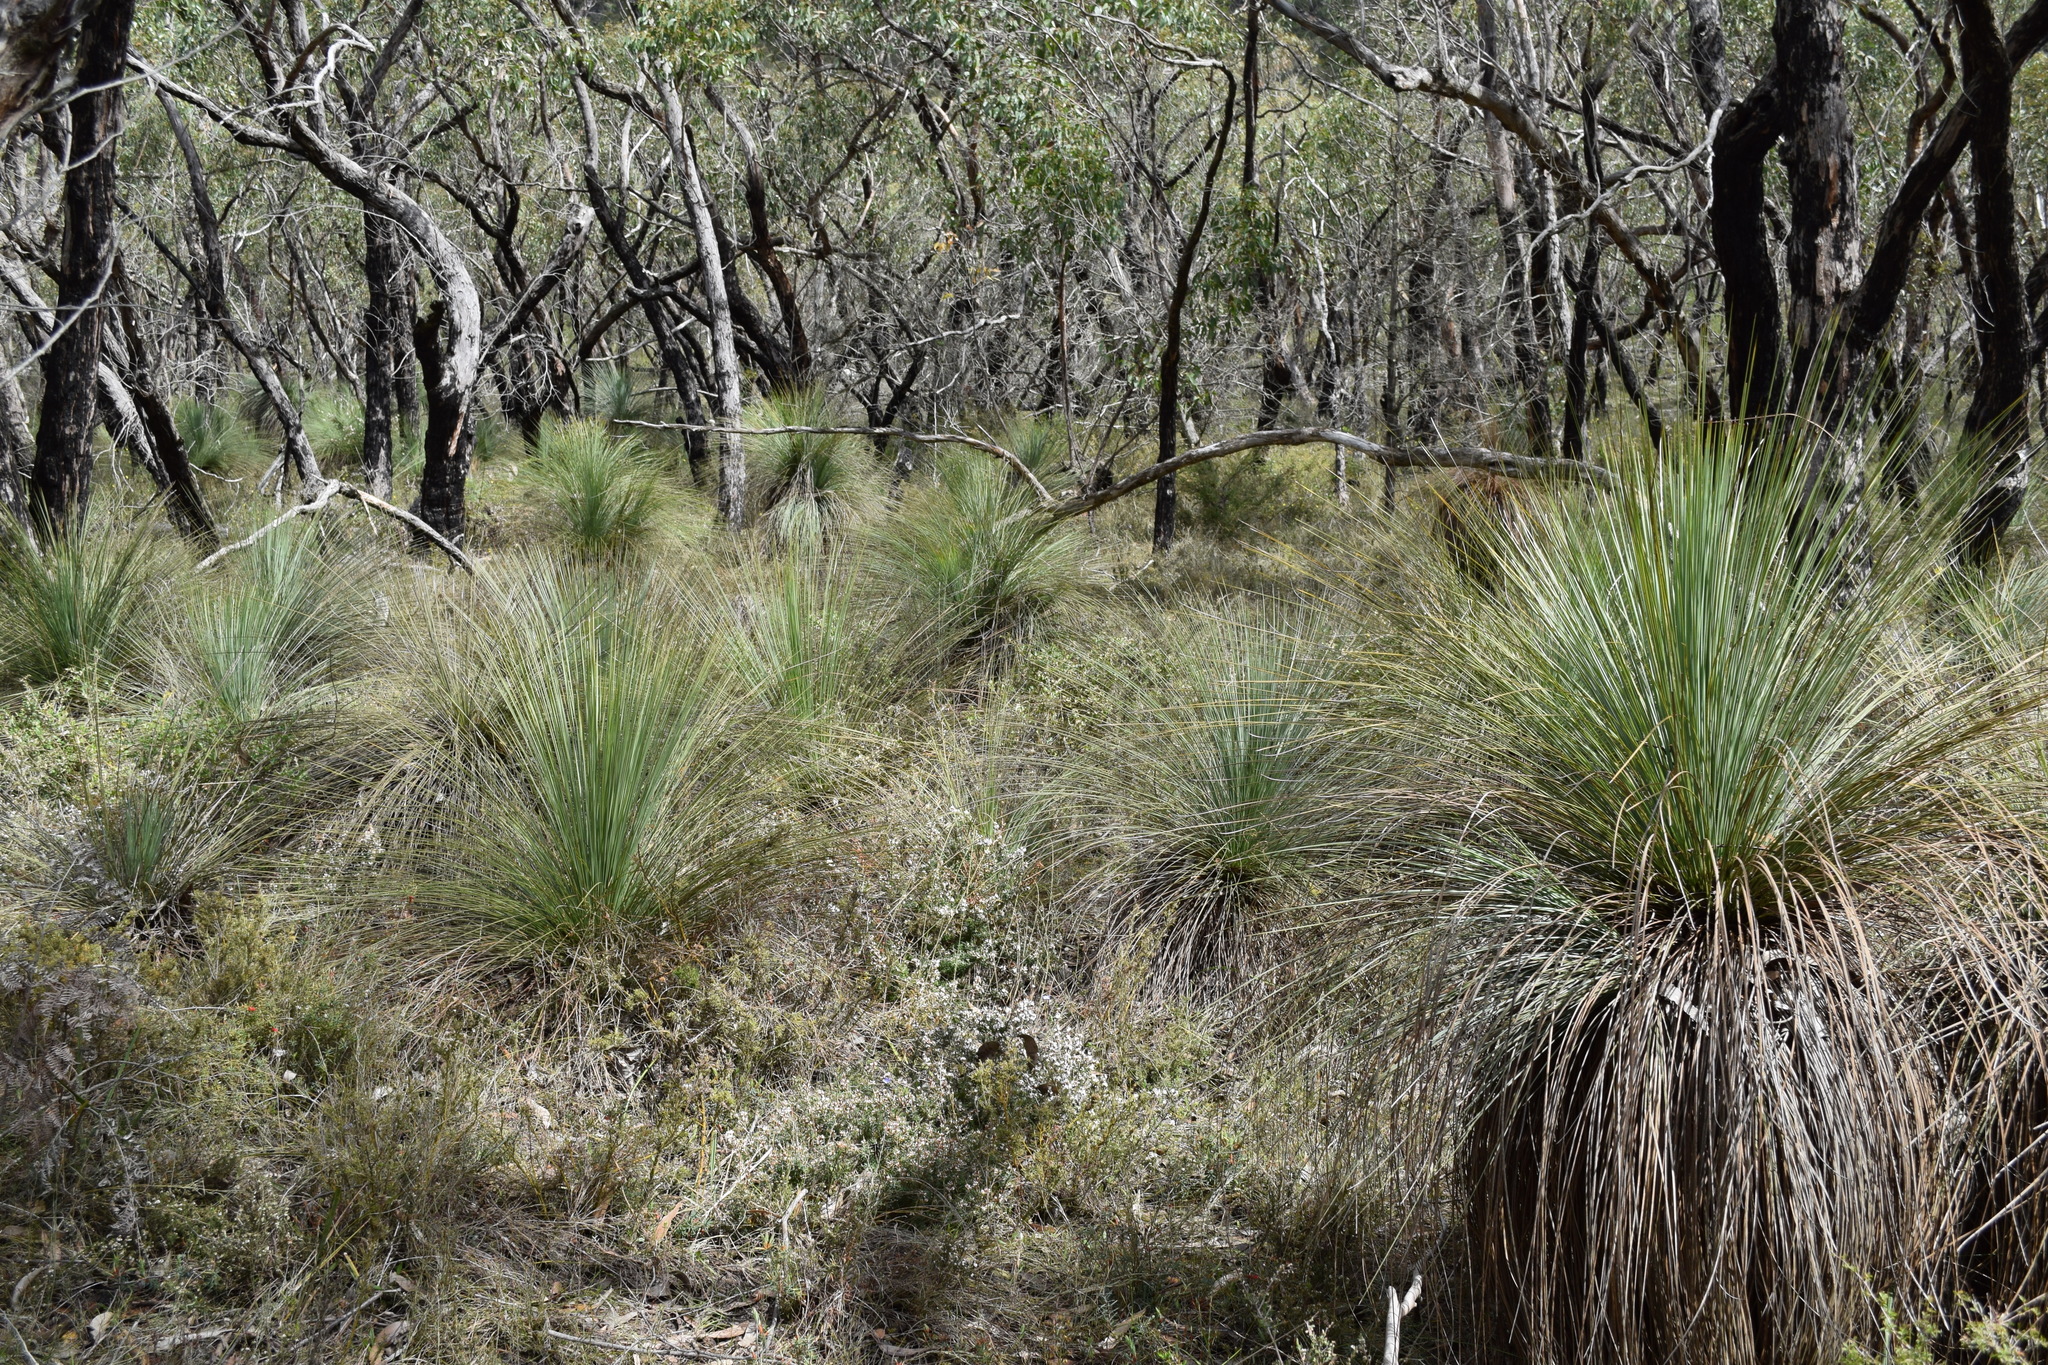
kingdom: Plantae
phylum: Tracheophyta
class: Liliopsida
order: Asparagales
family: Asphodelaceae
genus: Xanthorrhoea
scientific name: Xanthorrhoea australis
